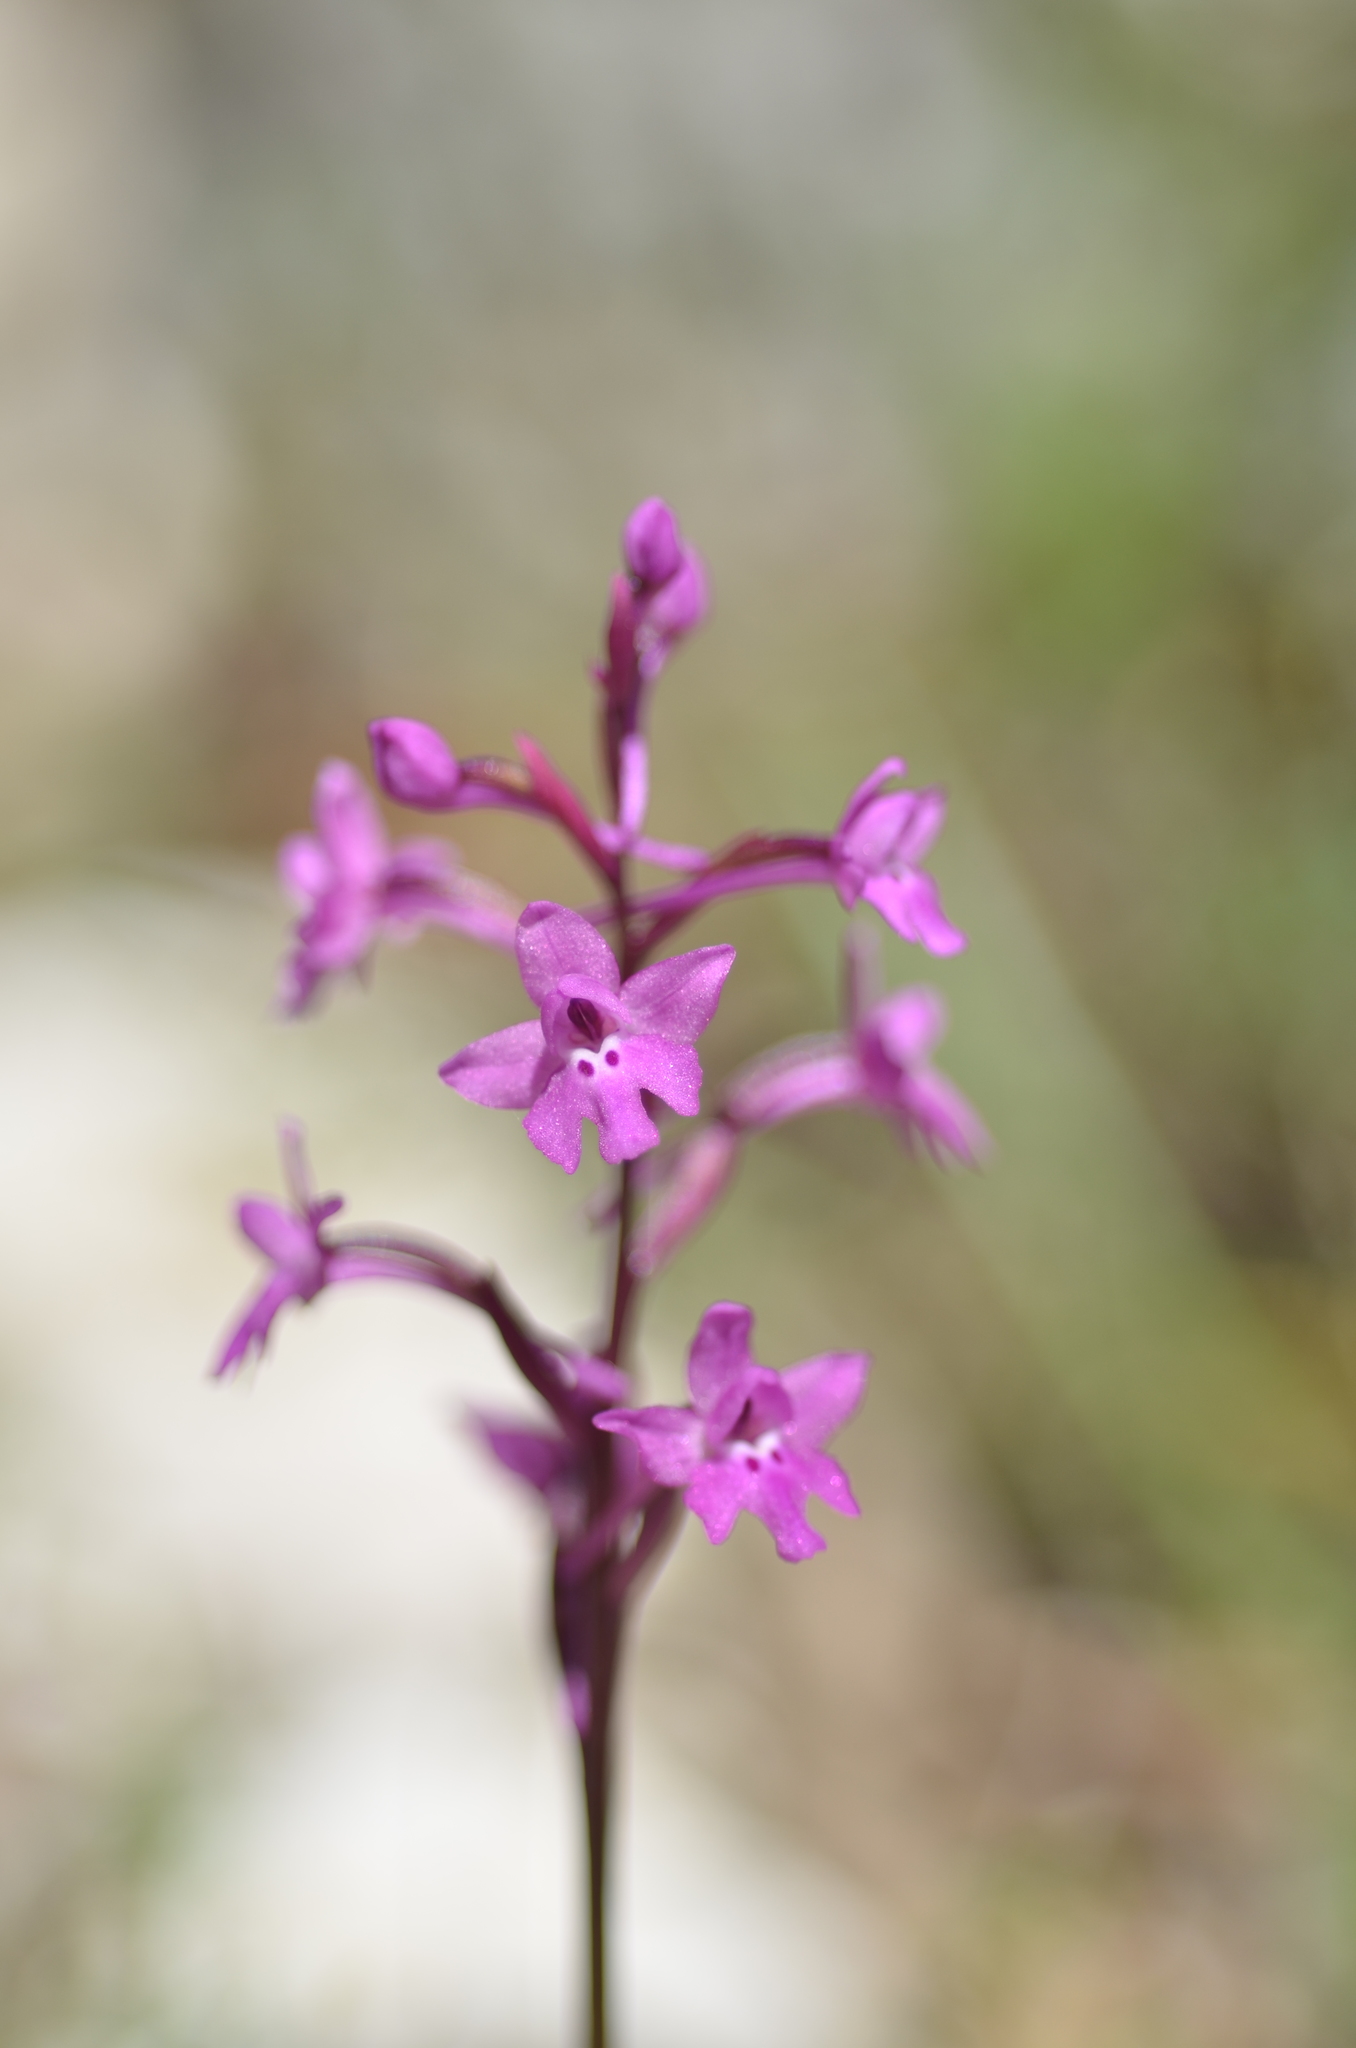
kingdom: Plantae
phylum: Tracheophyta
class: Liliopsida
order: Asparagales
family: Orchidaceae
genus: Orchis
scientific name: Orchis quadripunctata
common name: Four-spotted orchid
